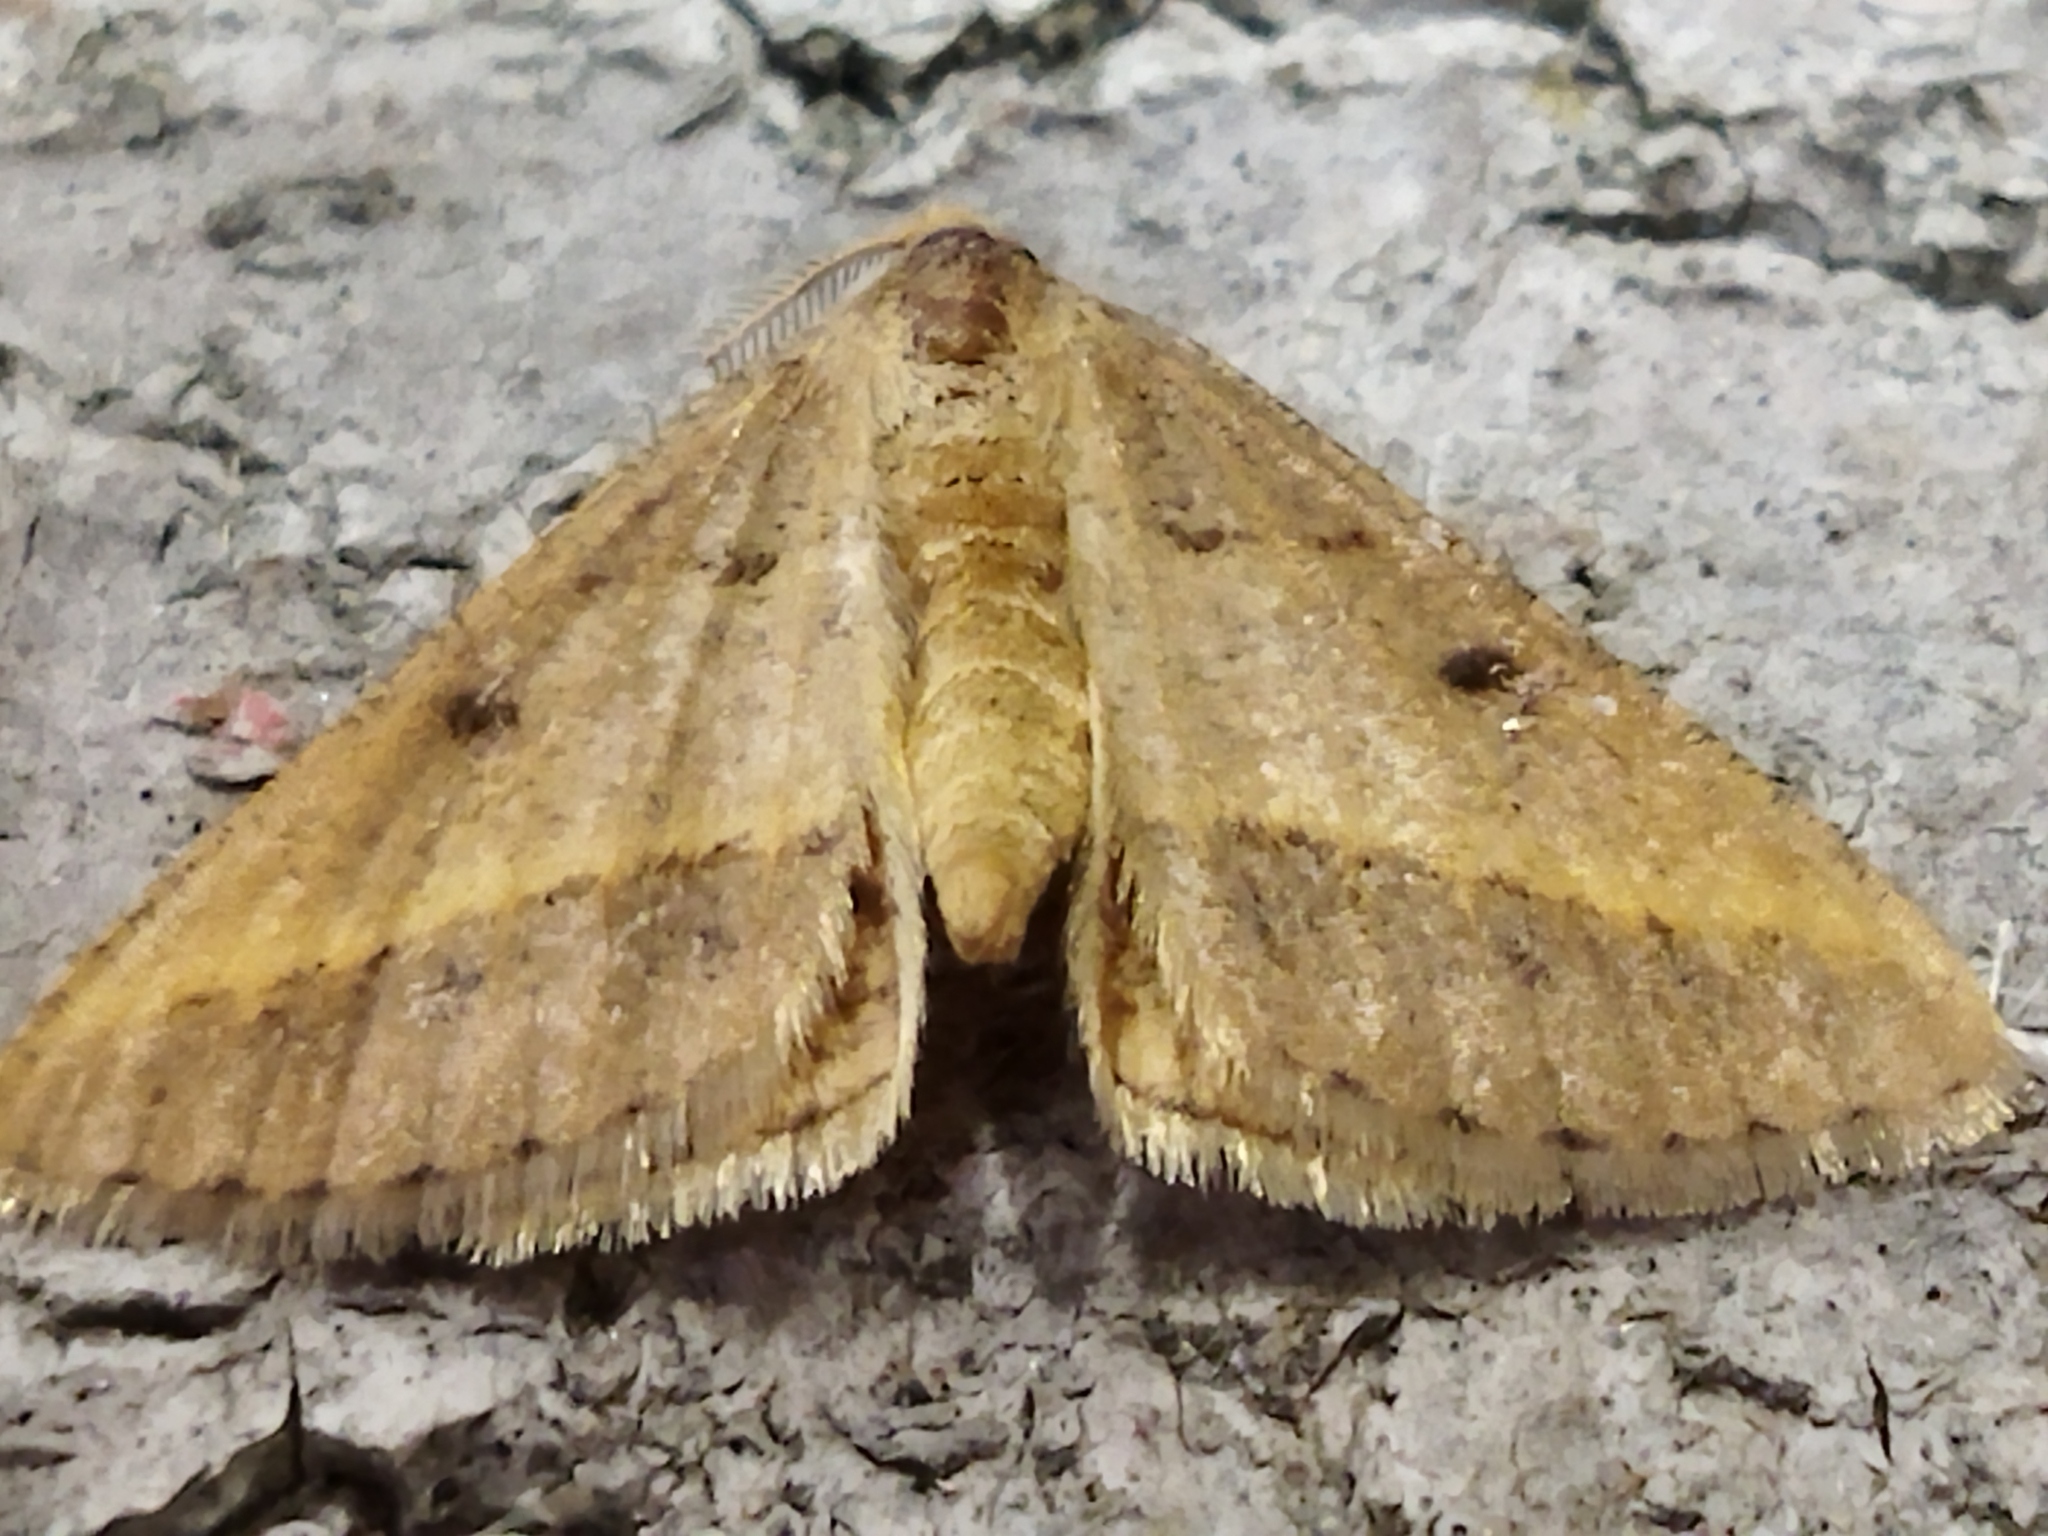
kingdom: Animalia
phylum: Arthropoda
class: Insecta
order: Lepidoptera
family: Geometridae
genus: Tephrina
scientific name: Tephrina arenacearia
